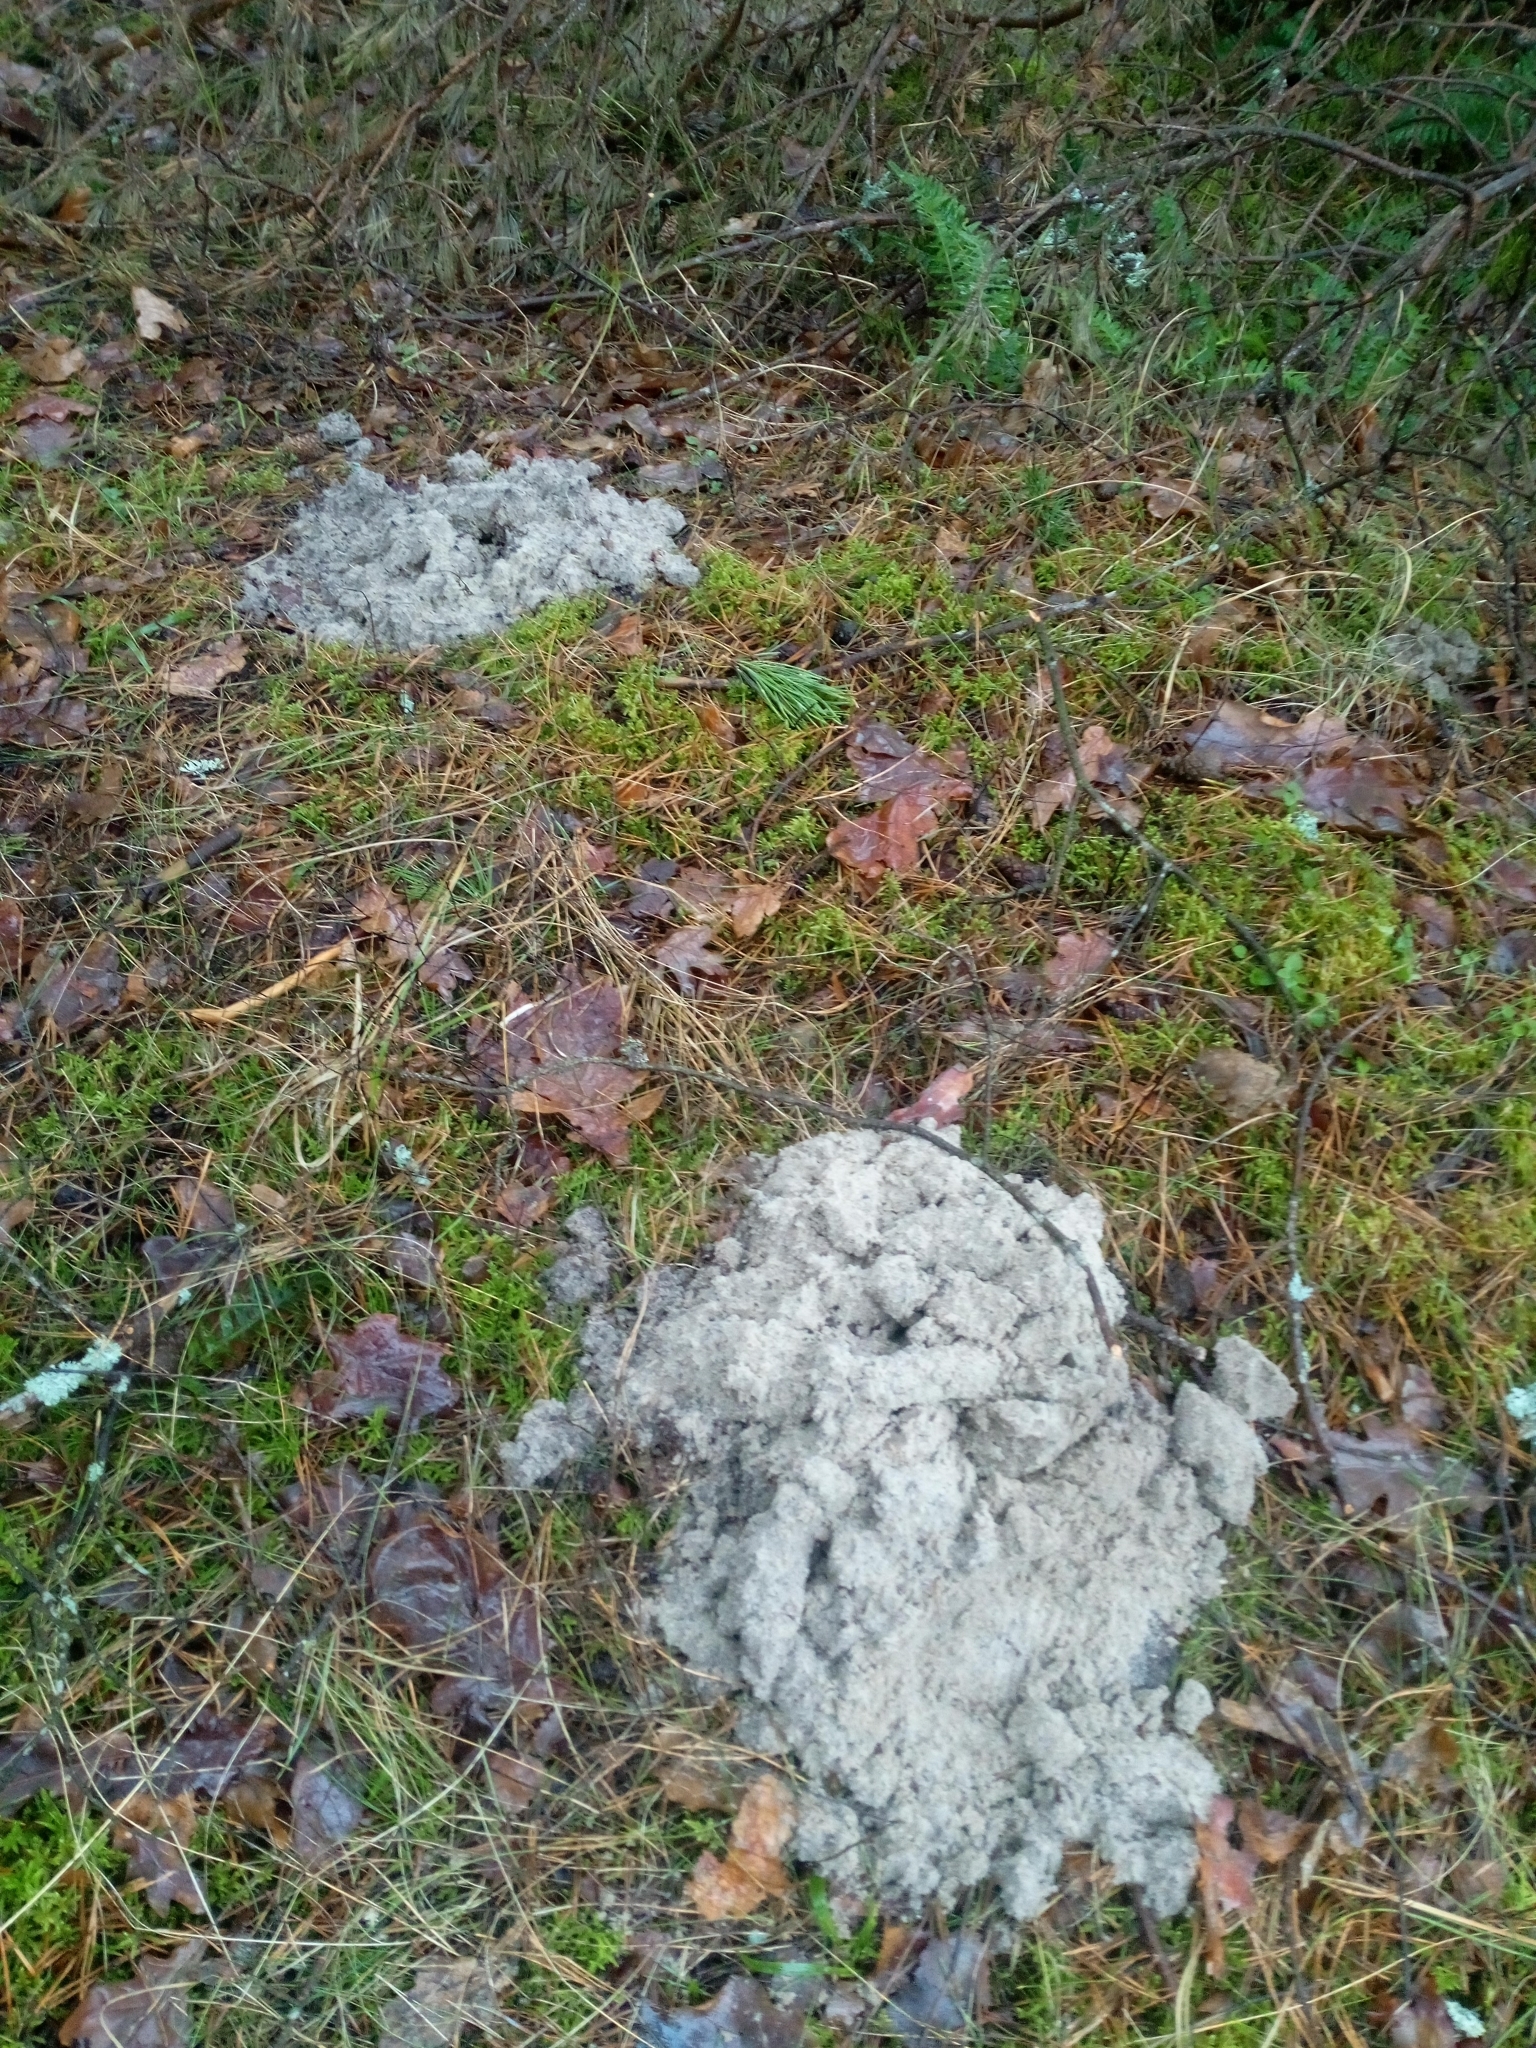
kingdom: Animalia
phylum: Chordata
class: Mammalia
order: Soricomorpha
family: Talpidae
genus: Talpa
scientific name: Talpa europaea
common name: European mole
